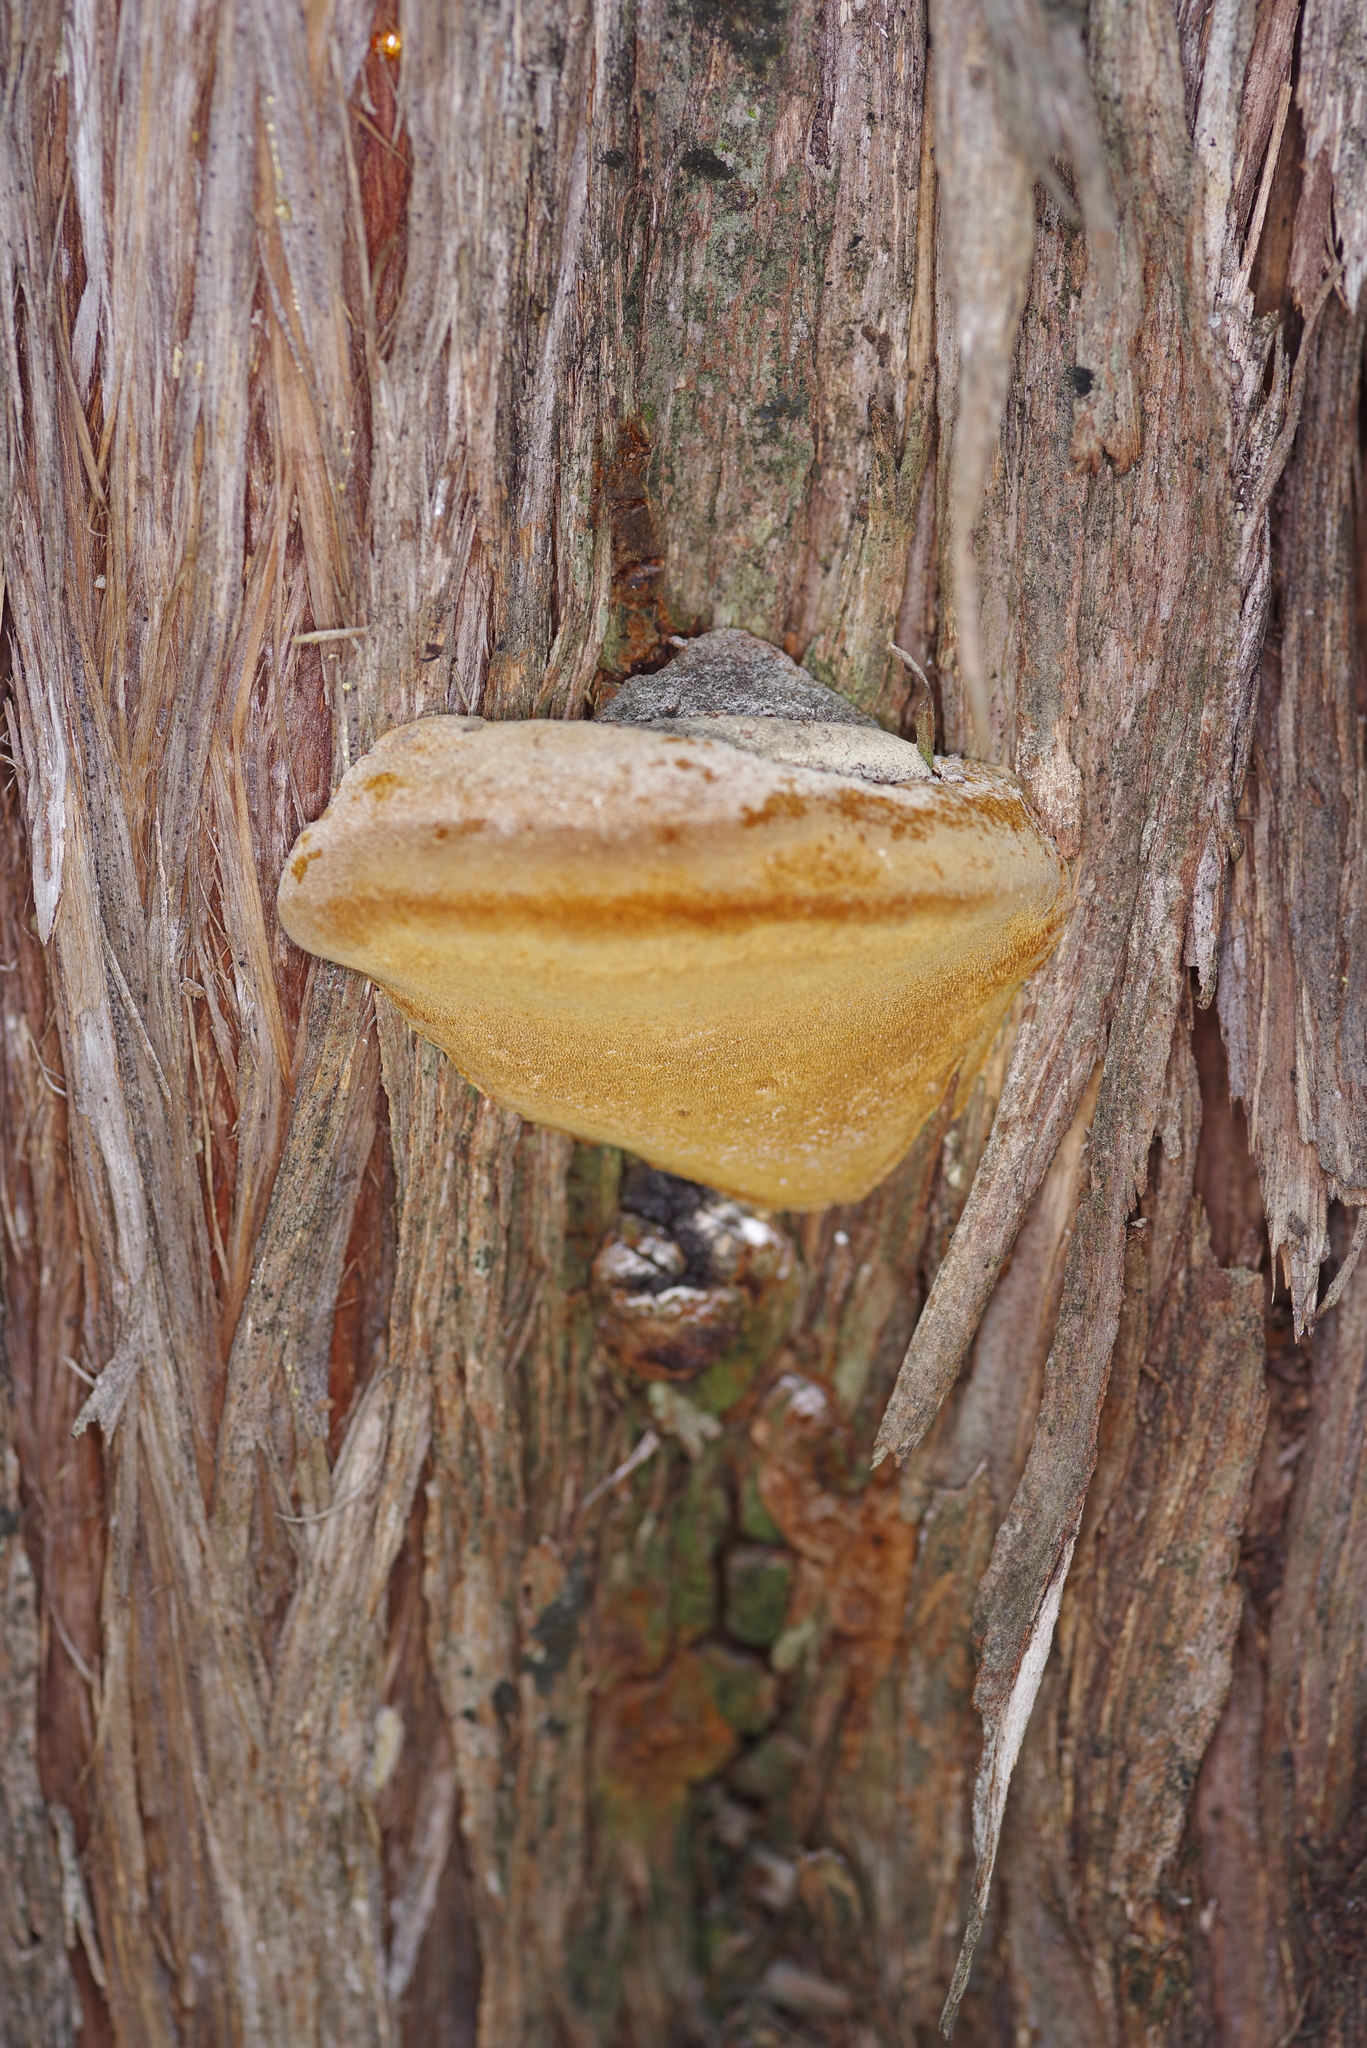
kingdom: Fungi
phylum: Basidiomycota
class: Agaricomycetes
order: Polyporales
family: Polyporaceae
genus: Pyrofomes
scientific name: Pyrofomes juniperinus
